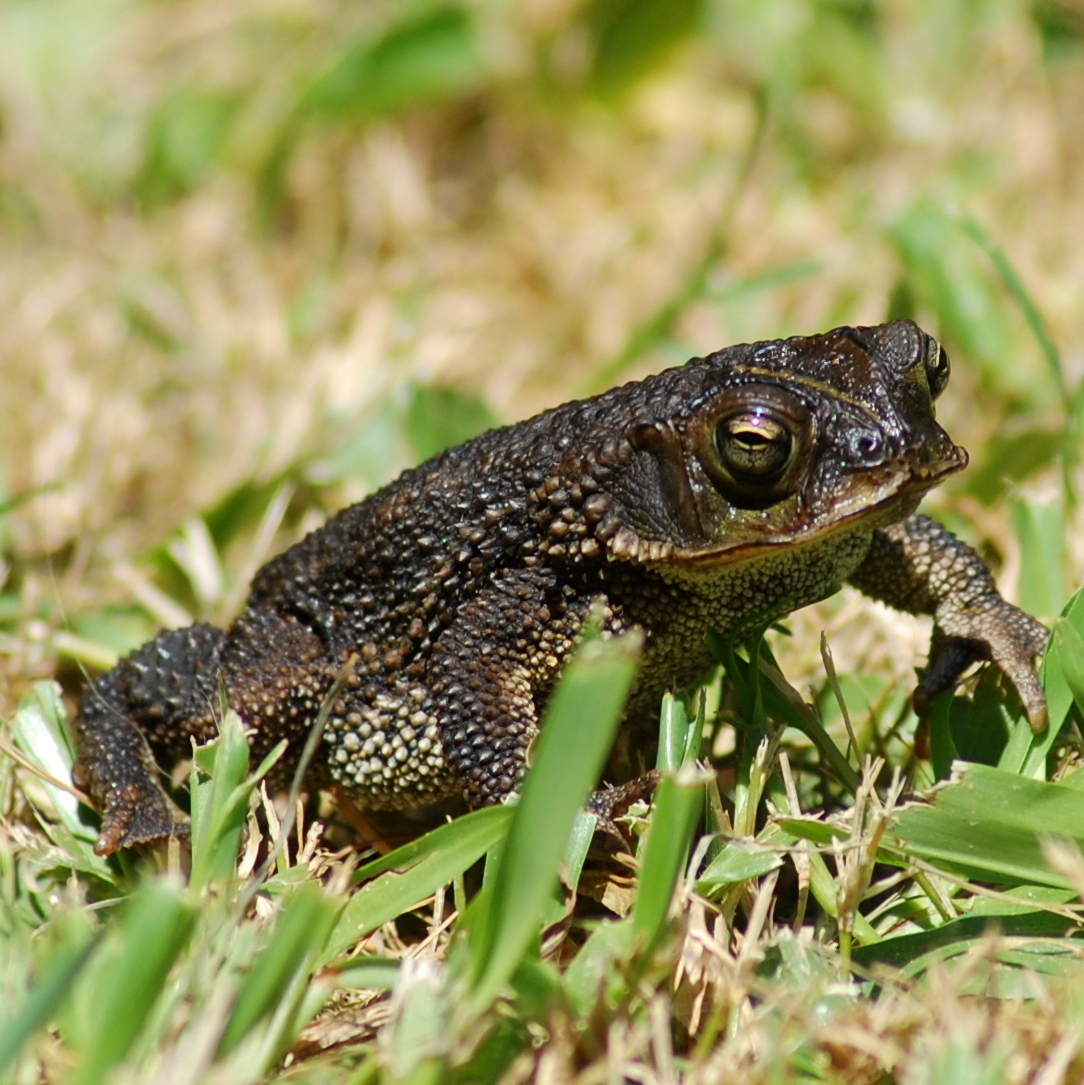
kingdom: Animalia
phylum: Chordata
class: Amphibia
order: Anura
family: Bufonidae
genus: Rhinella
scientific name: Rhinella dorbignyi
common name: D´orbigny’s toad
